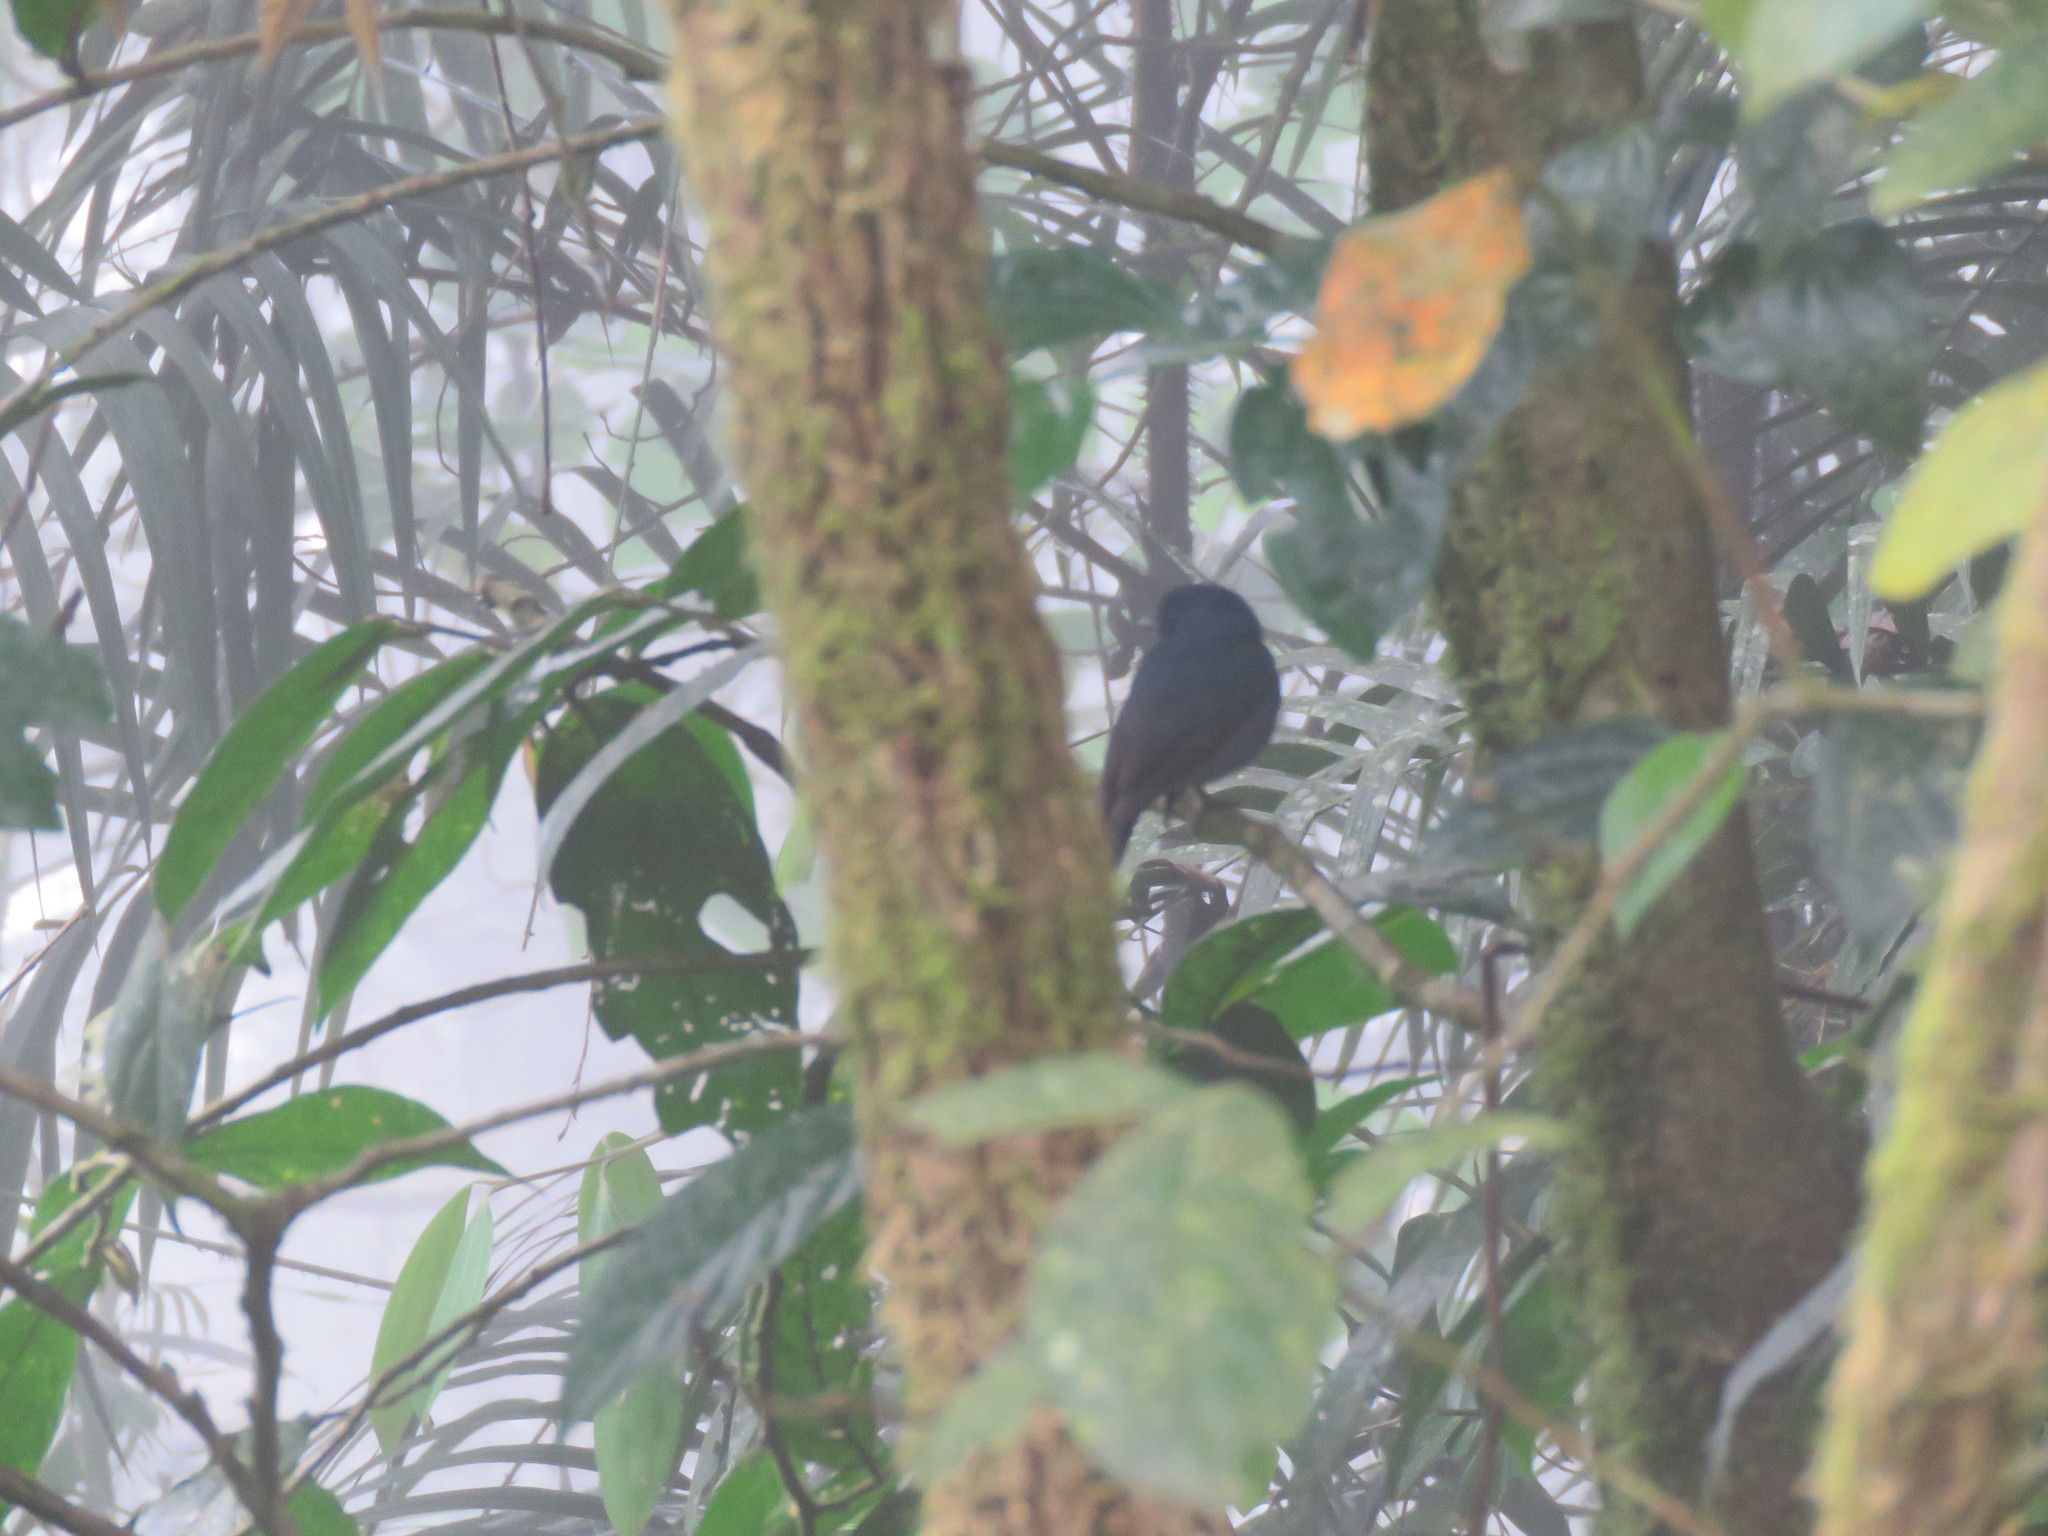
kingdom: Animalia
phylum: Chordata
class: Aves
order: Passeriformes
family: Muscicapidae
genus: Eumyias
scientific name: Eumyias albicaudatus
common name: Nilgiri flycatcher
